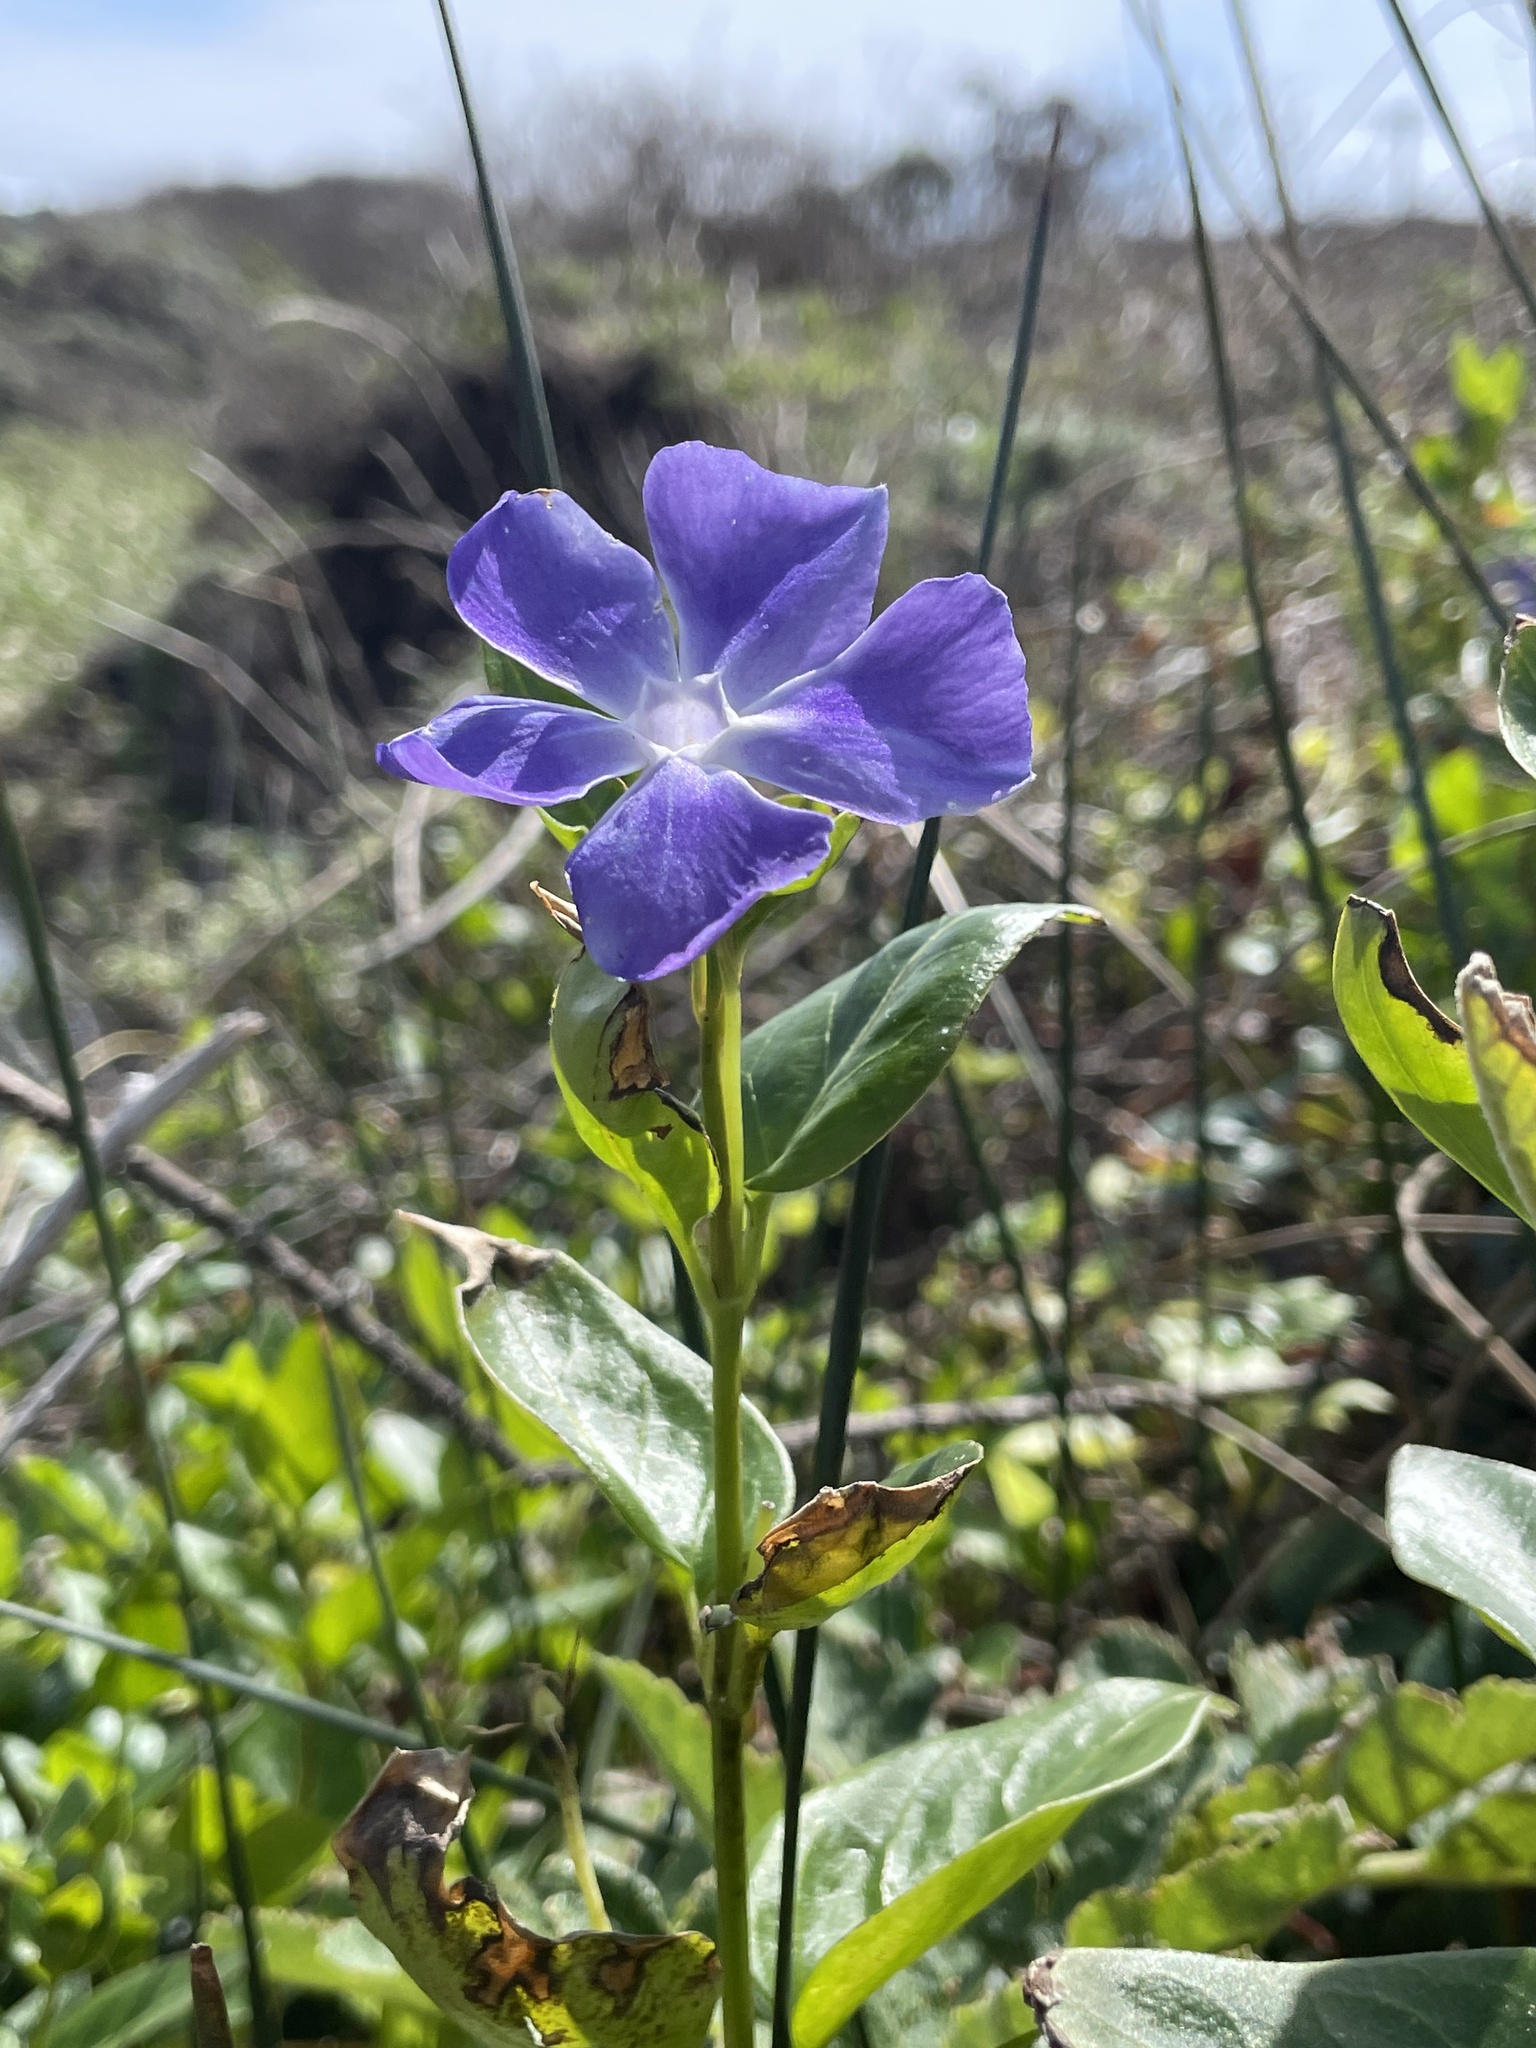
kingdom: Plantae
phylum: Tracheophyta
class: Magnoliopsida
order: Gentianales
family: Apocynaceae
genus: Vinca
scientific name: Vinca major
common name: Greater periwinkle
